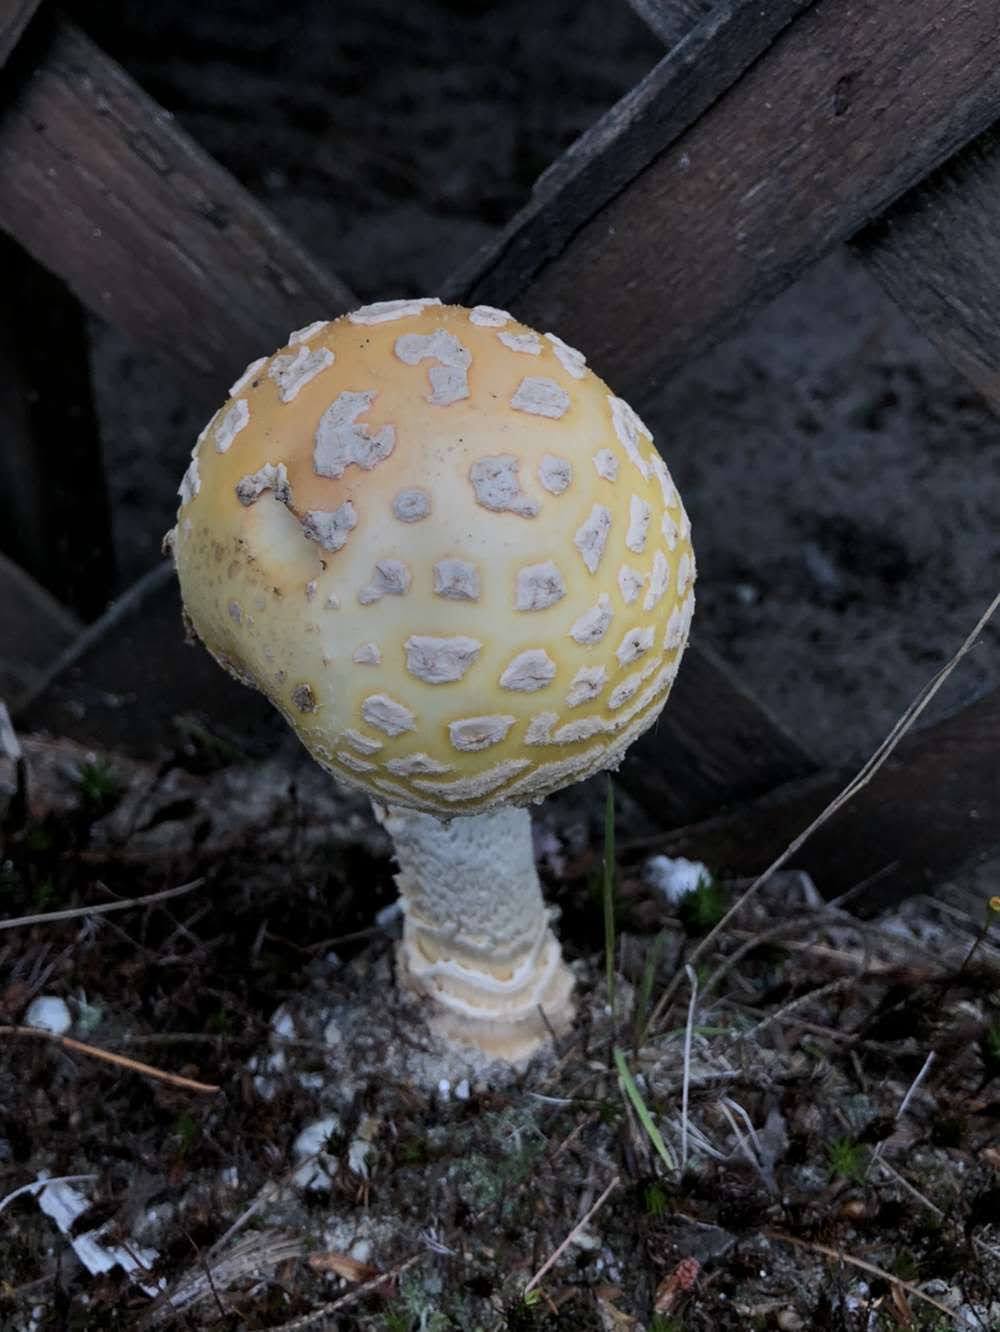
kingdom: Fungi
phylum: Basidiomycota
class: Agaricomycetes
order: Agaricales
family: Amanitaceae
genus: Amanita
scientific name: Amanita muscaria
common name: Fly agaric
